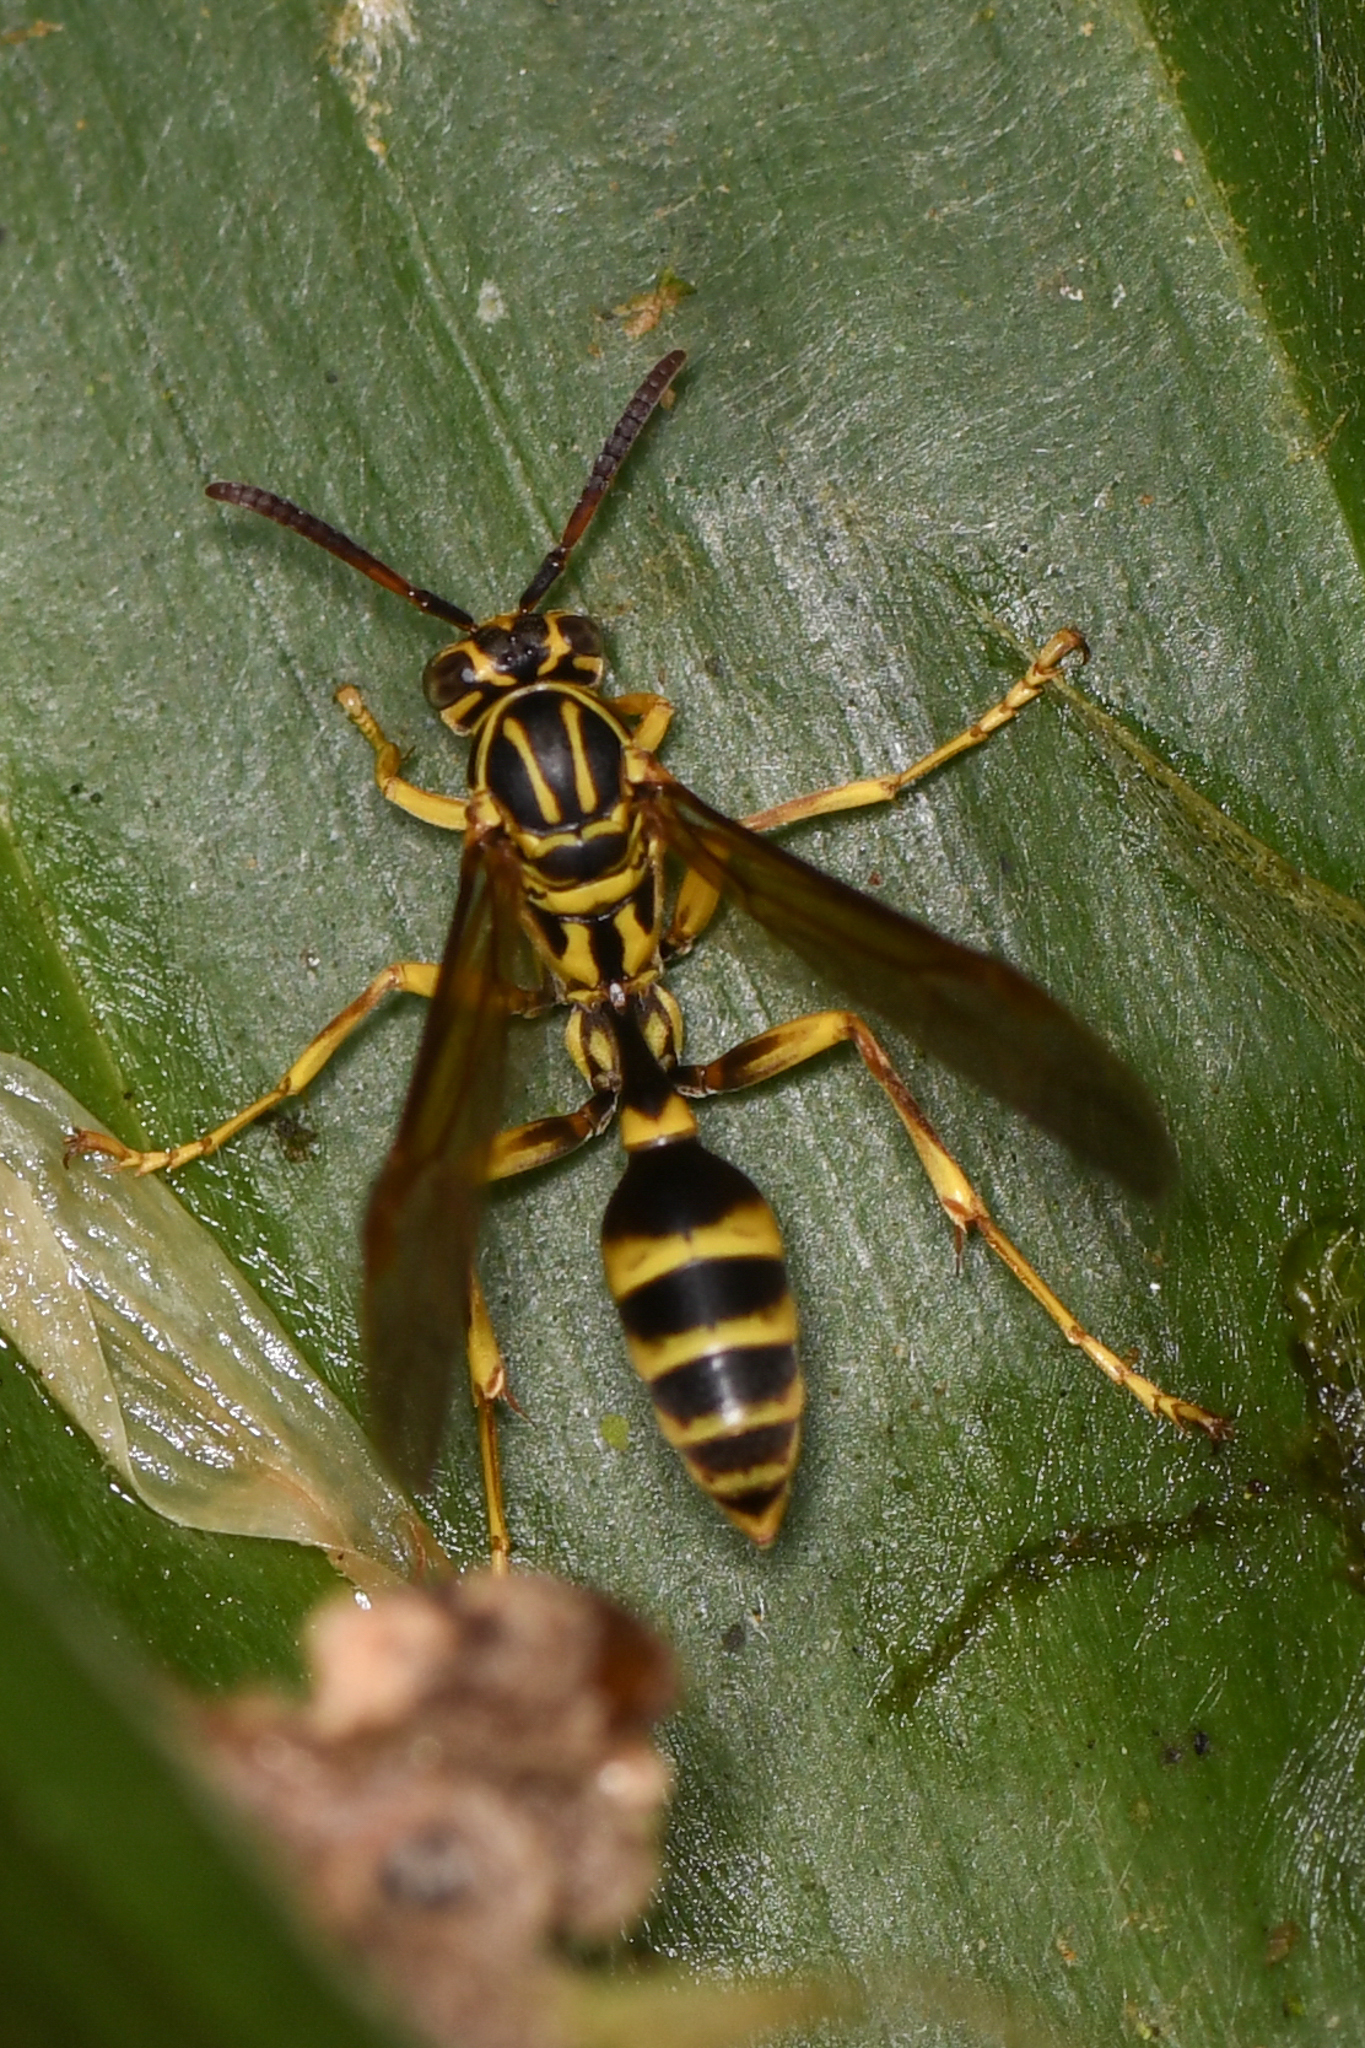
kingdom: Animalia
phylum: Arthropoda
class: Insecta
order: Hymenoptera
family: Vespidae
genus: Mischocyttarus
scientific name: Mischocyttarus fraudulentus
